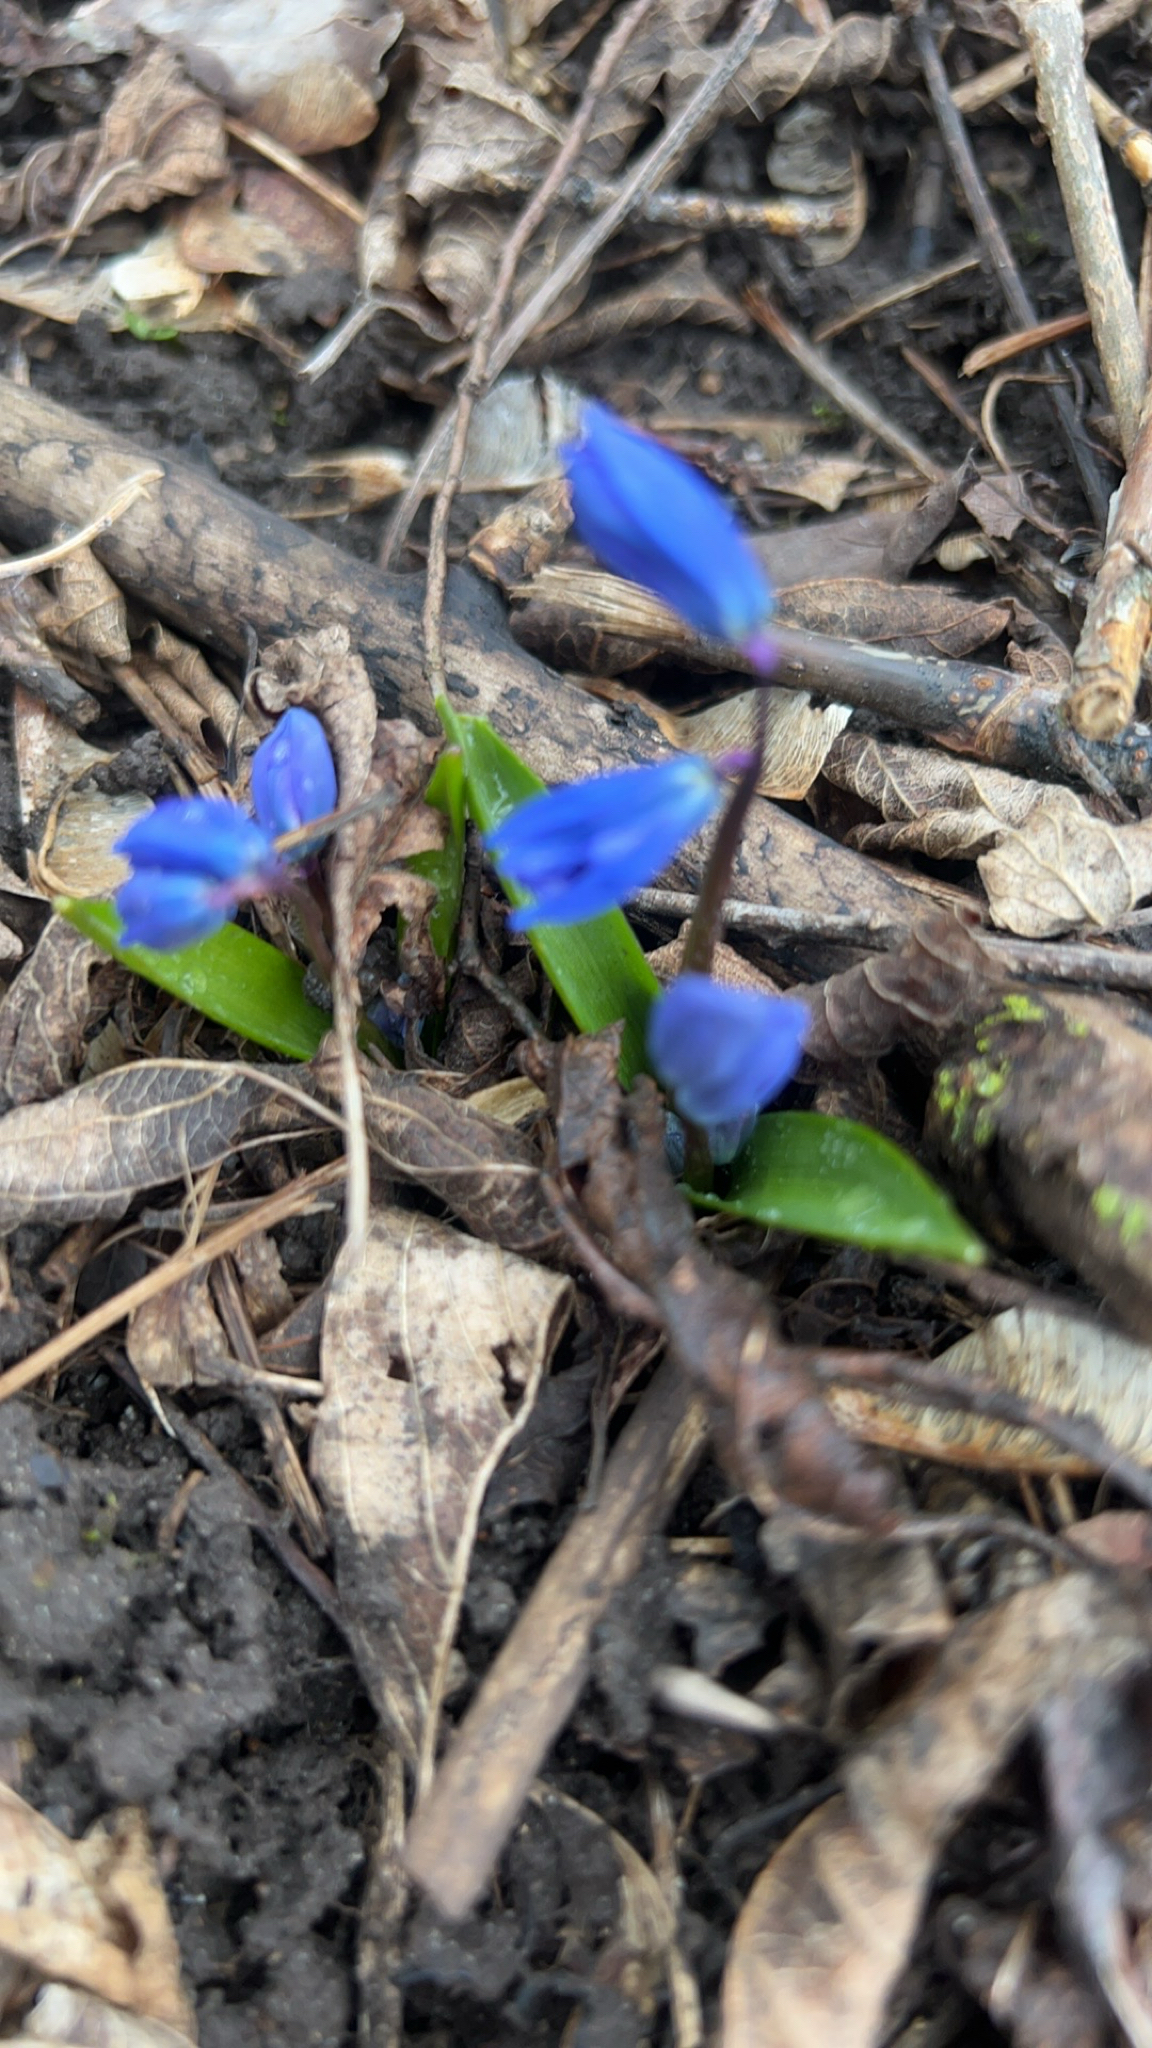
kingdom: Plantae
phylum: Tracheophyta
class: Liliopsida
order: Asparagales
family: Asparagaceae
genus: Scilla
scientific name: Scilla siberica
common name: Siberian squill
